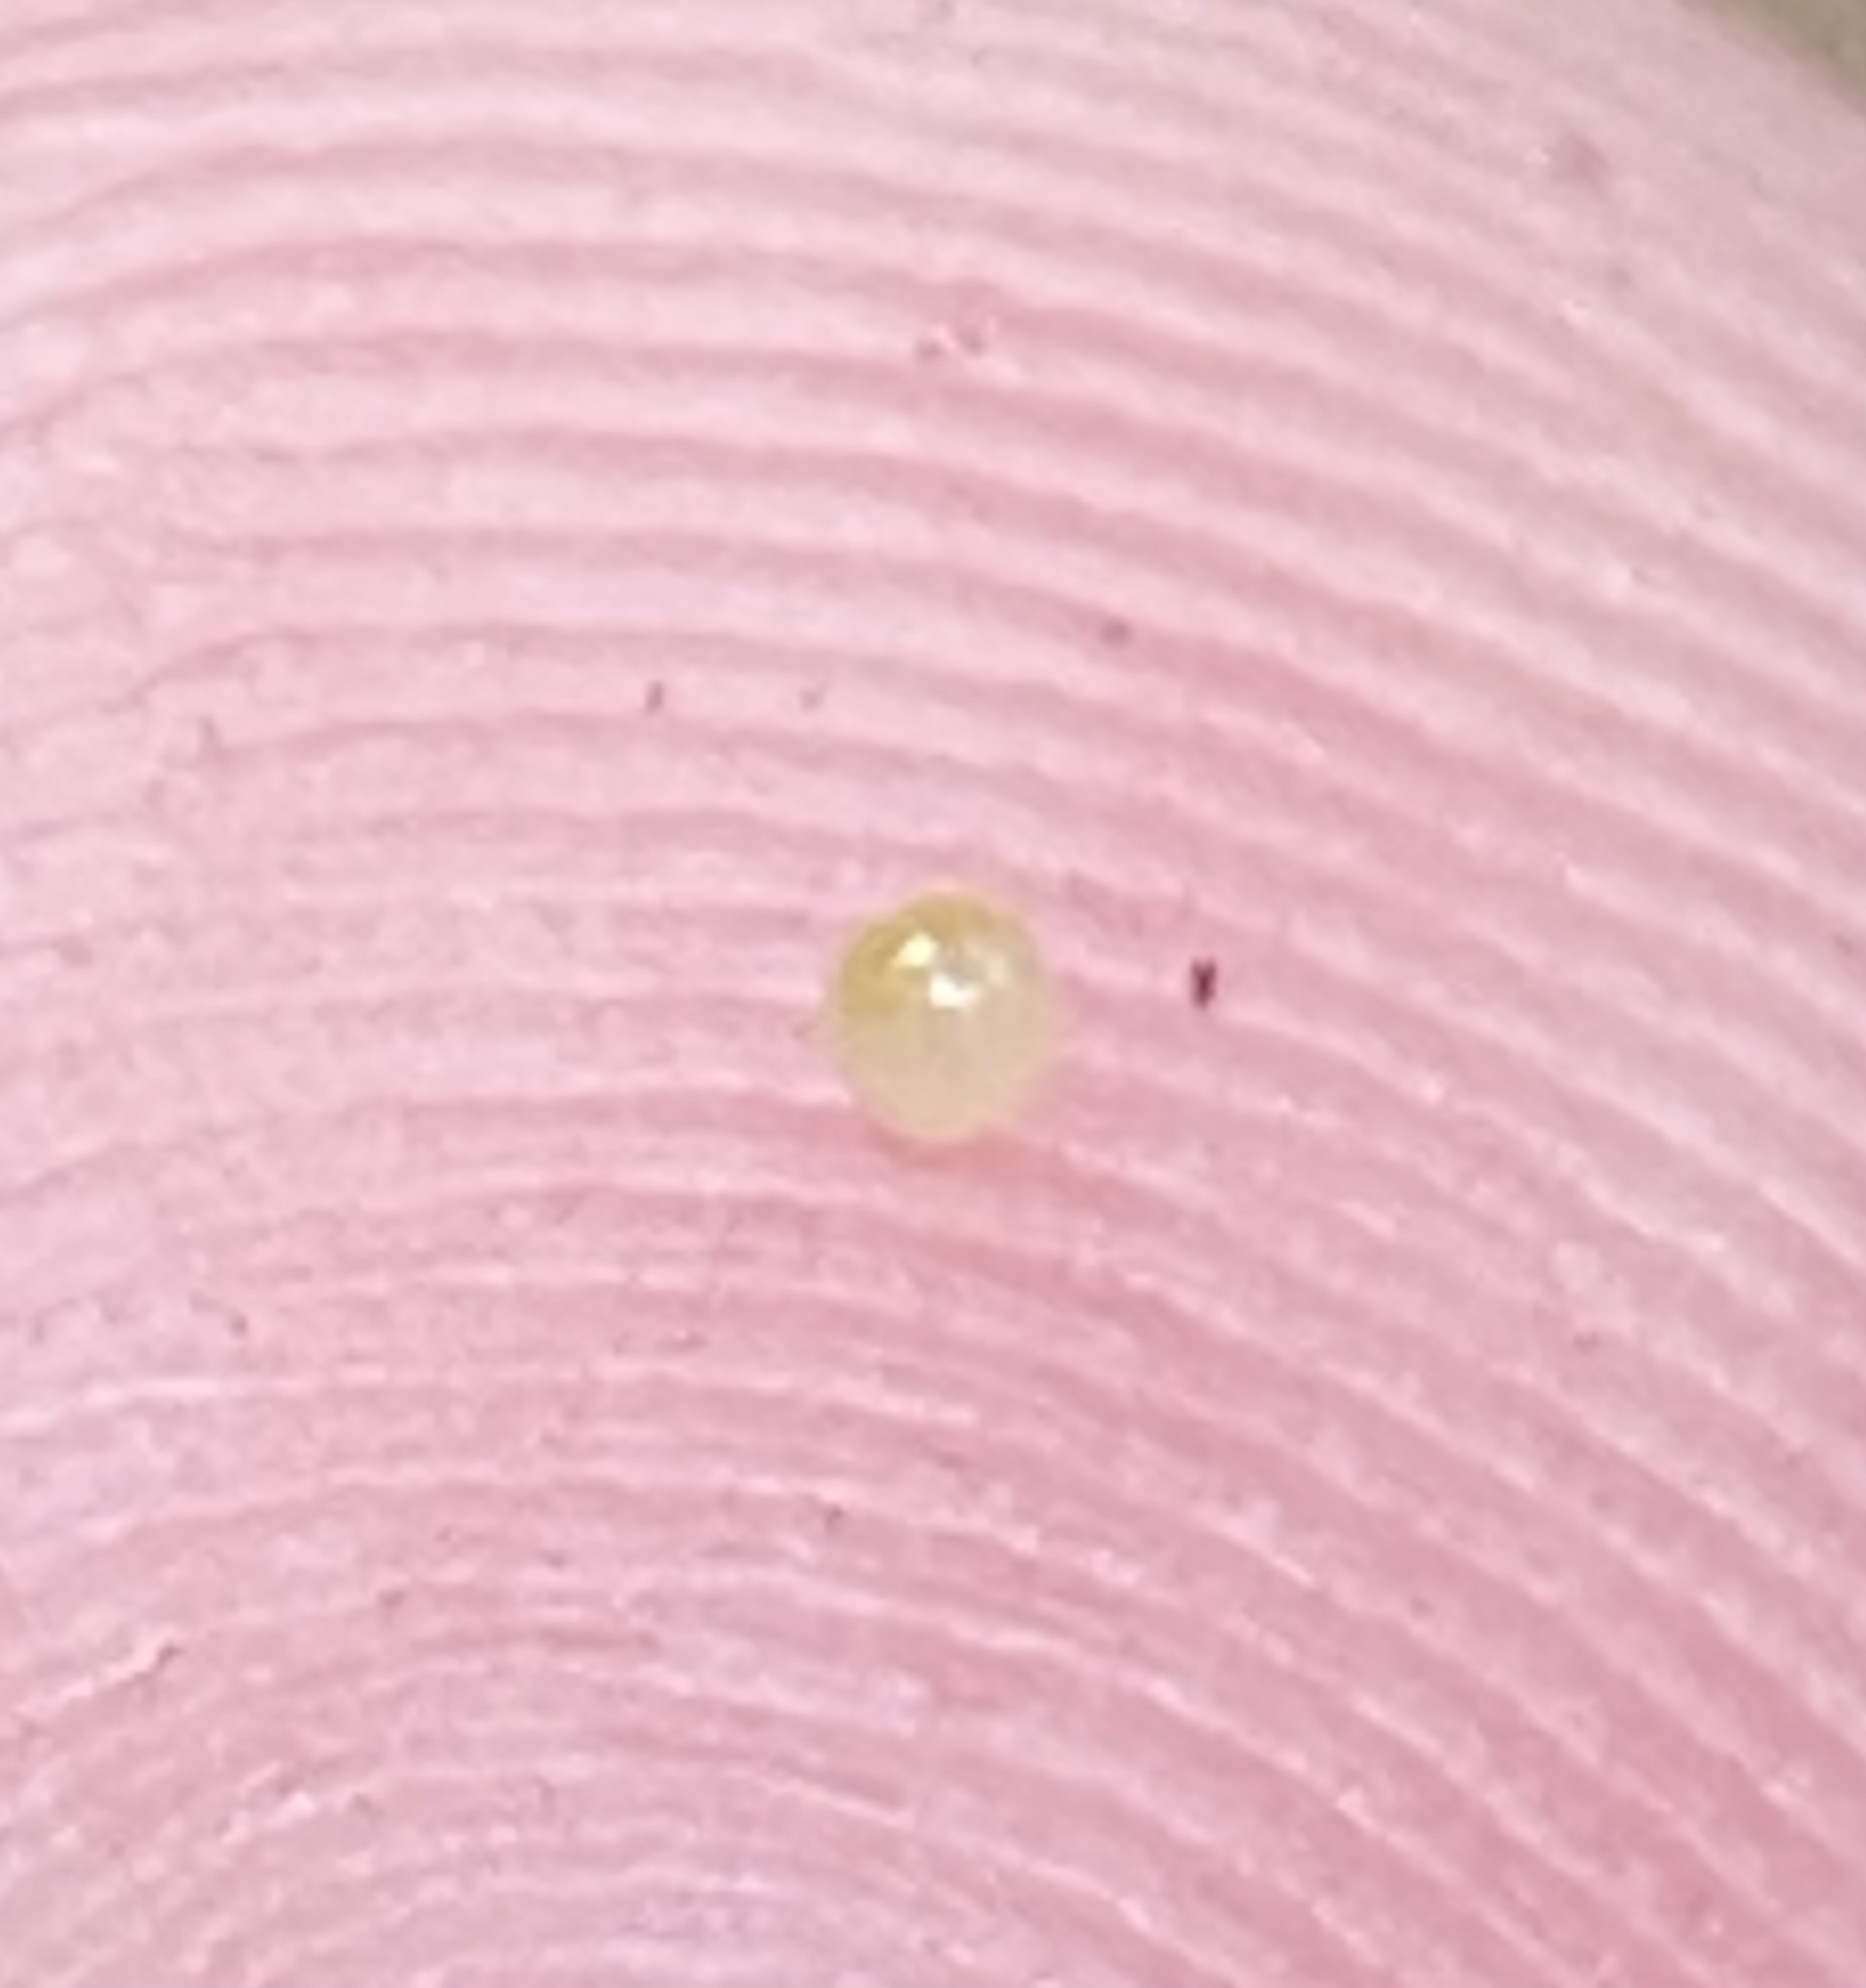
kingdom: Animalia
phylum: Arthropoda
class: Malacostraca
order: Isopoda
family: Cylisticidae
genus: Cylisticus
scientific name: Cylisticus convexus
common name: Curly woodlouse
